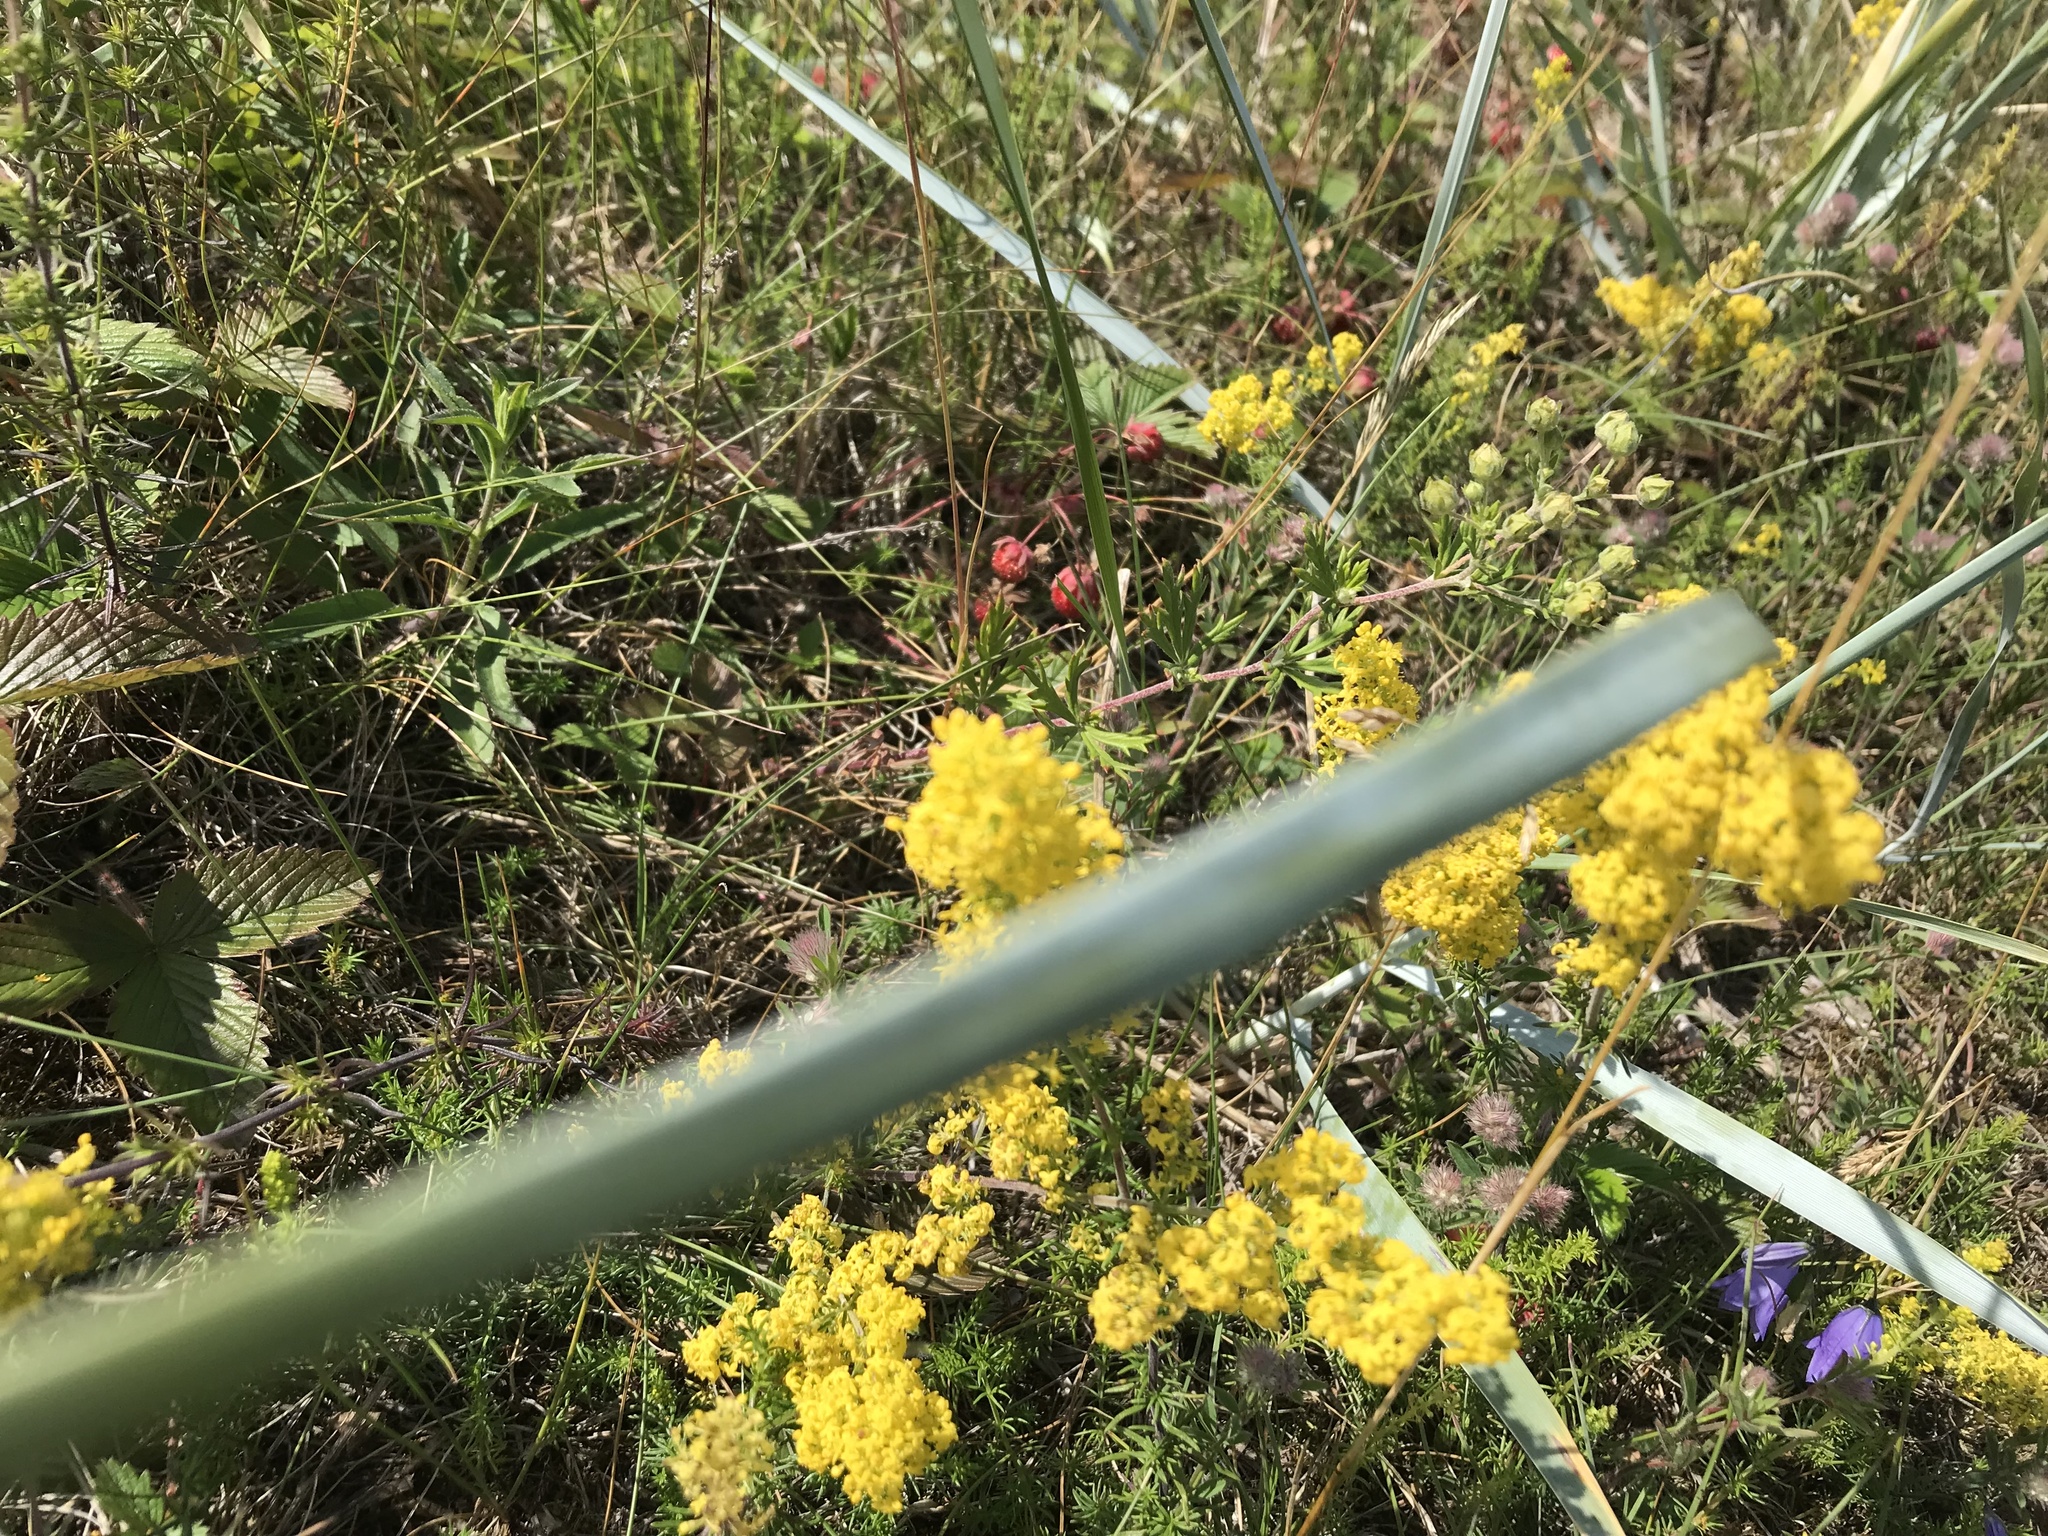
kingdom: Plantae
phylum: Tracheophyta
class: Magnoliopsida
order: Gentianales
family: Rubiaceae
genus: Galium
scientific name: Galium verum
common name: Lady's bedstraw
